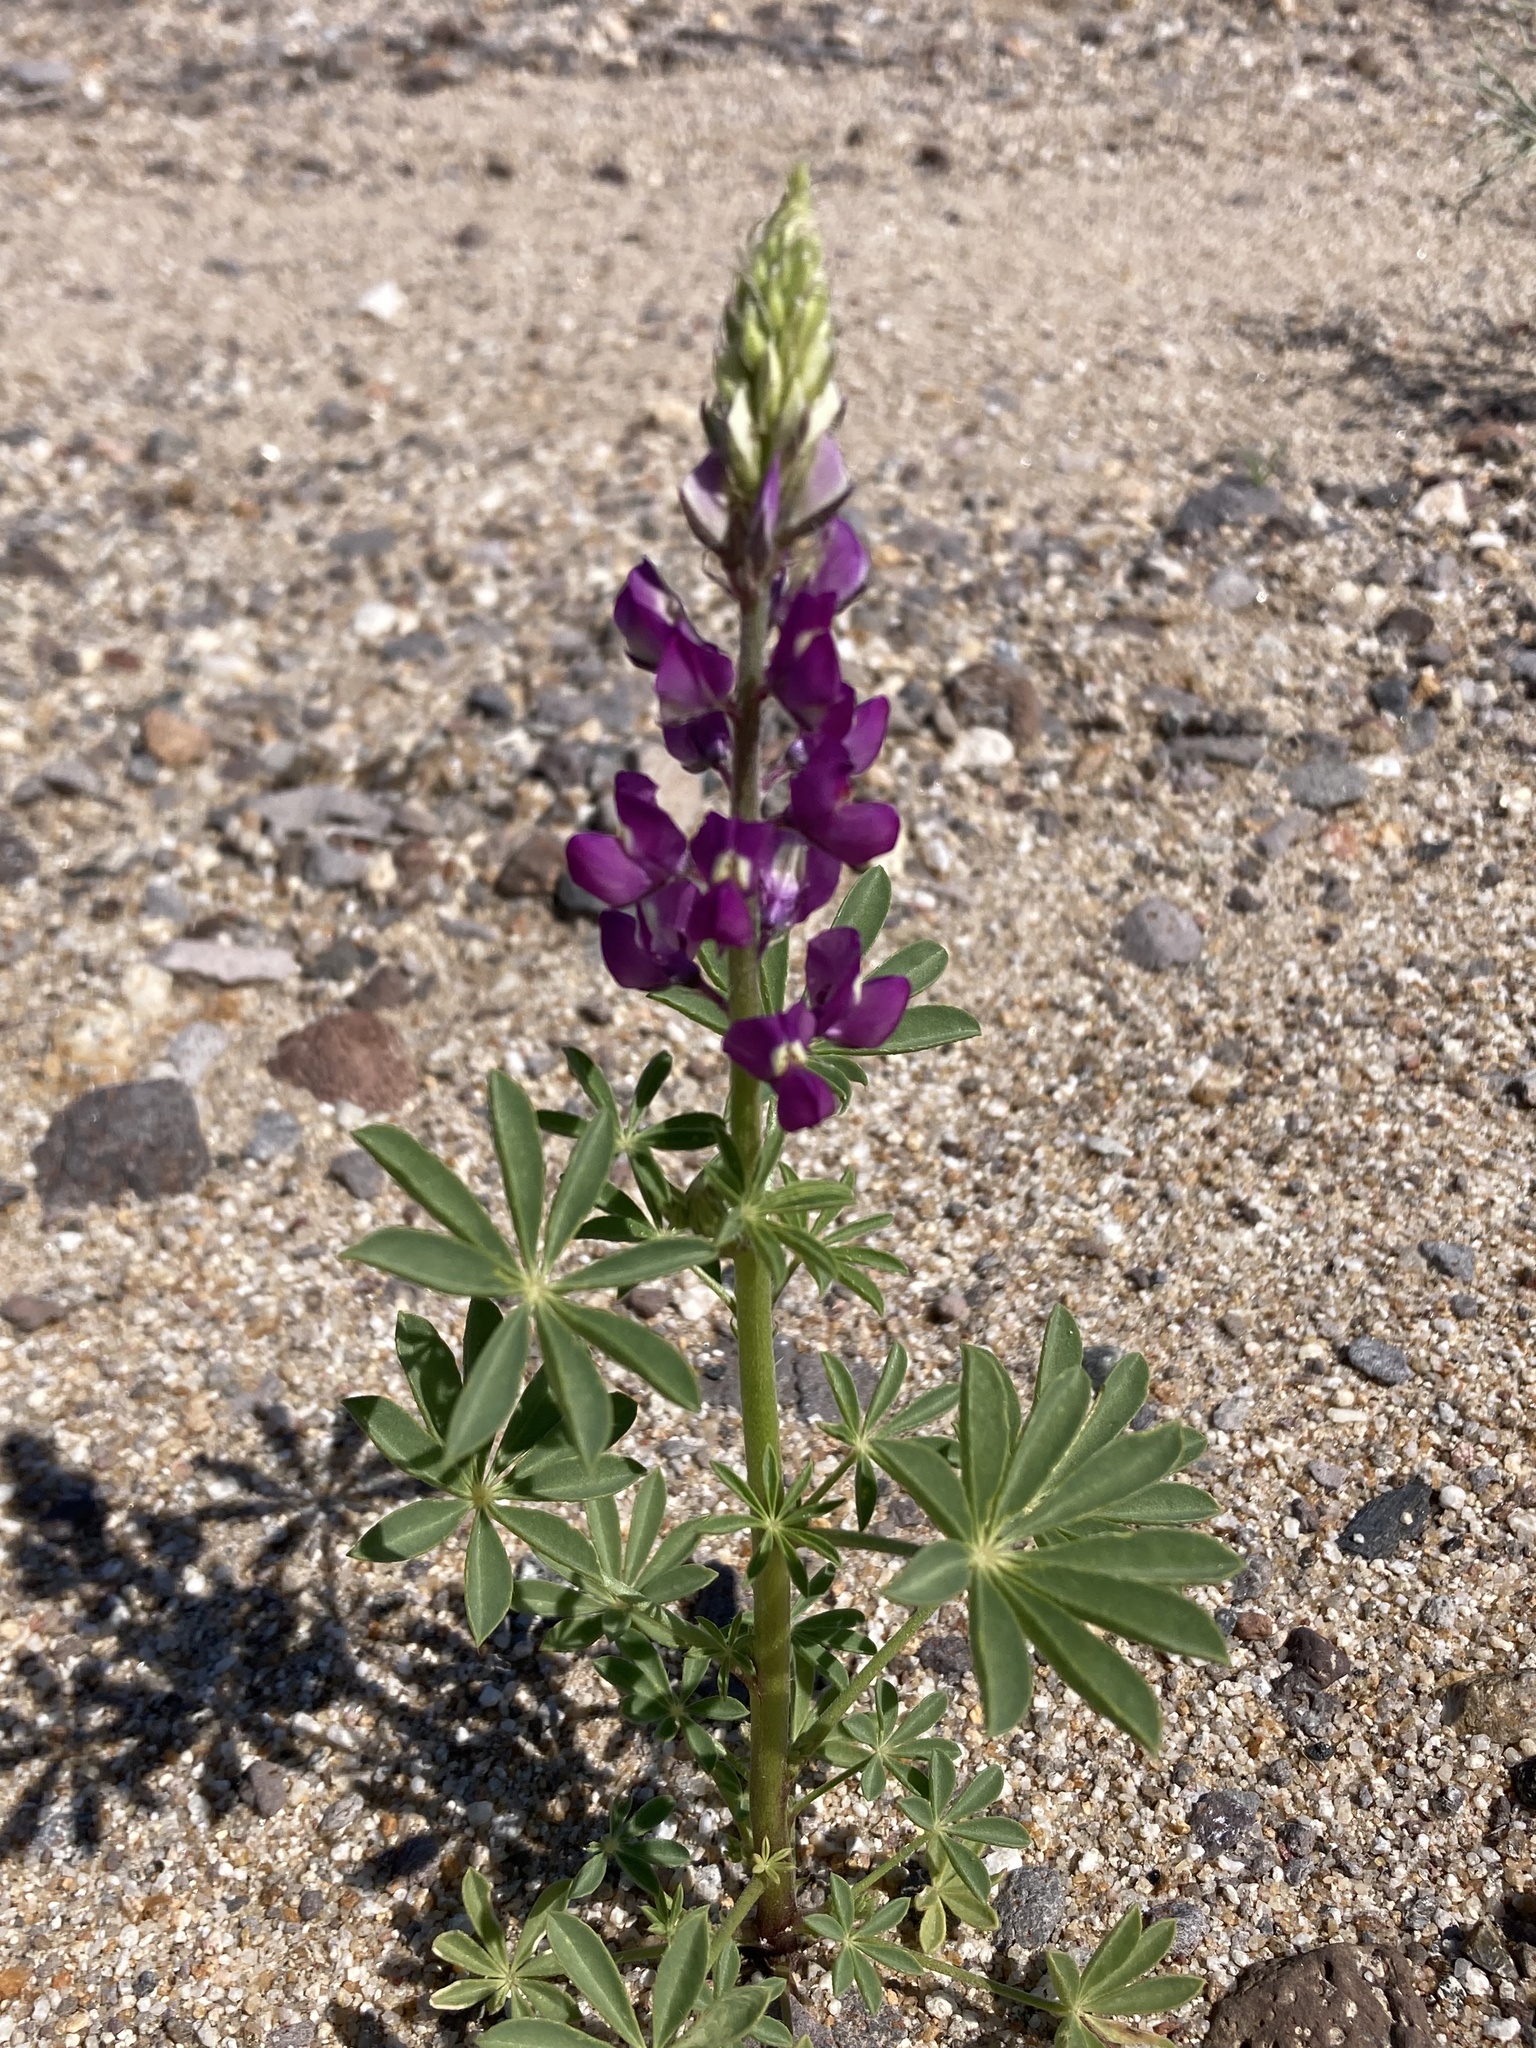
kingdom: Plantae
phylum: Tracheophyta
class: Magnoliopsida
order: Fabales
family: Fabaceae
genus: Lupinus
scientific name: Lupinus arizonicus
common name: Arizona lupine
